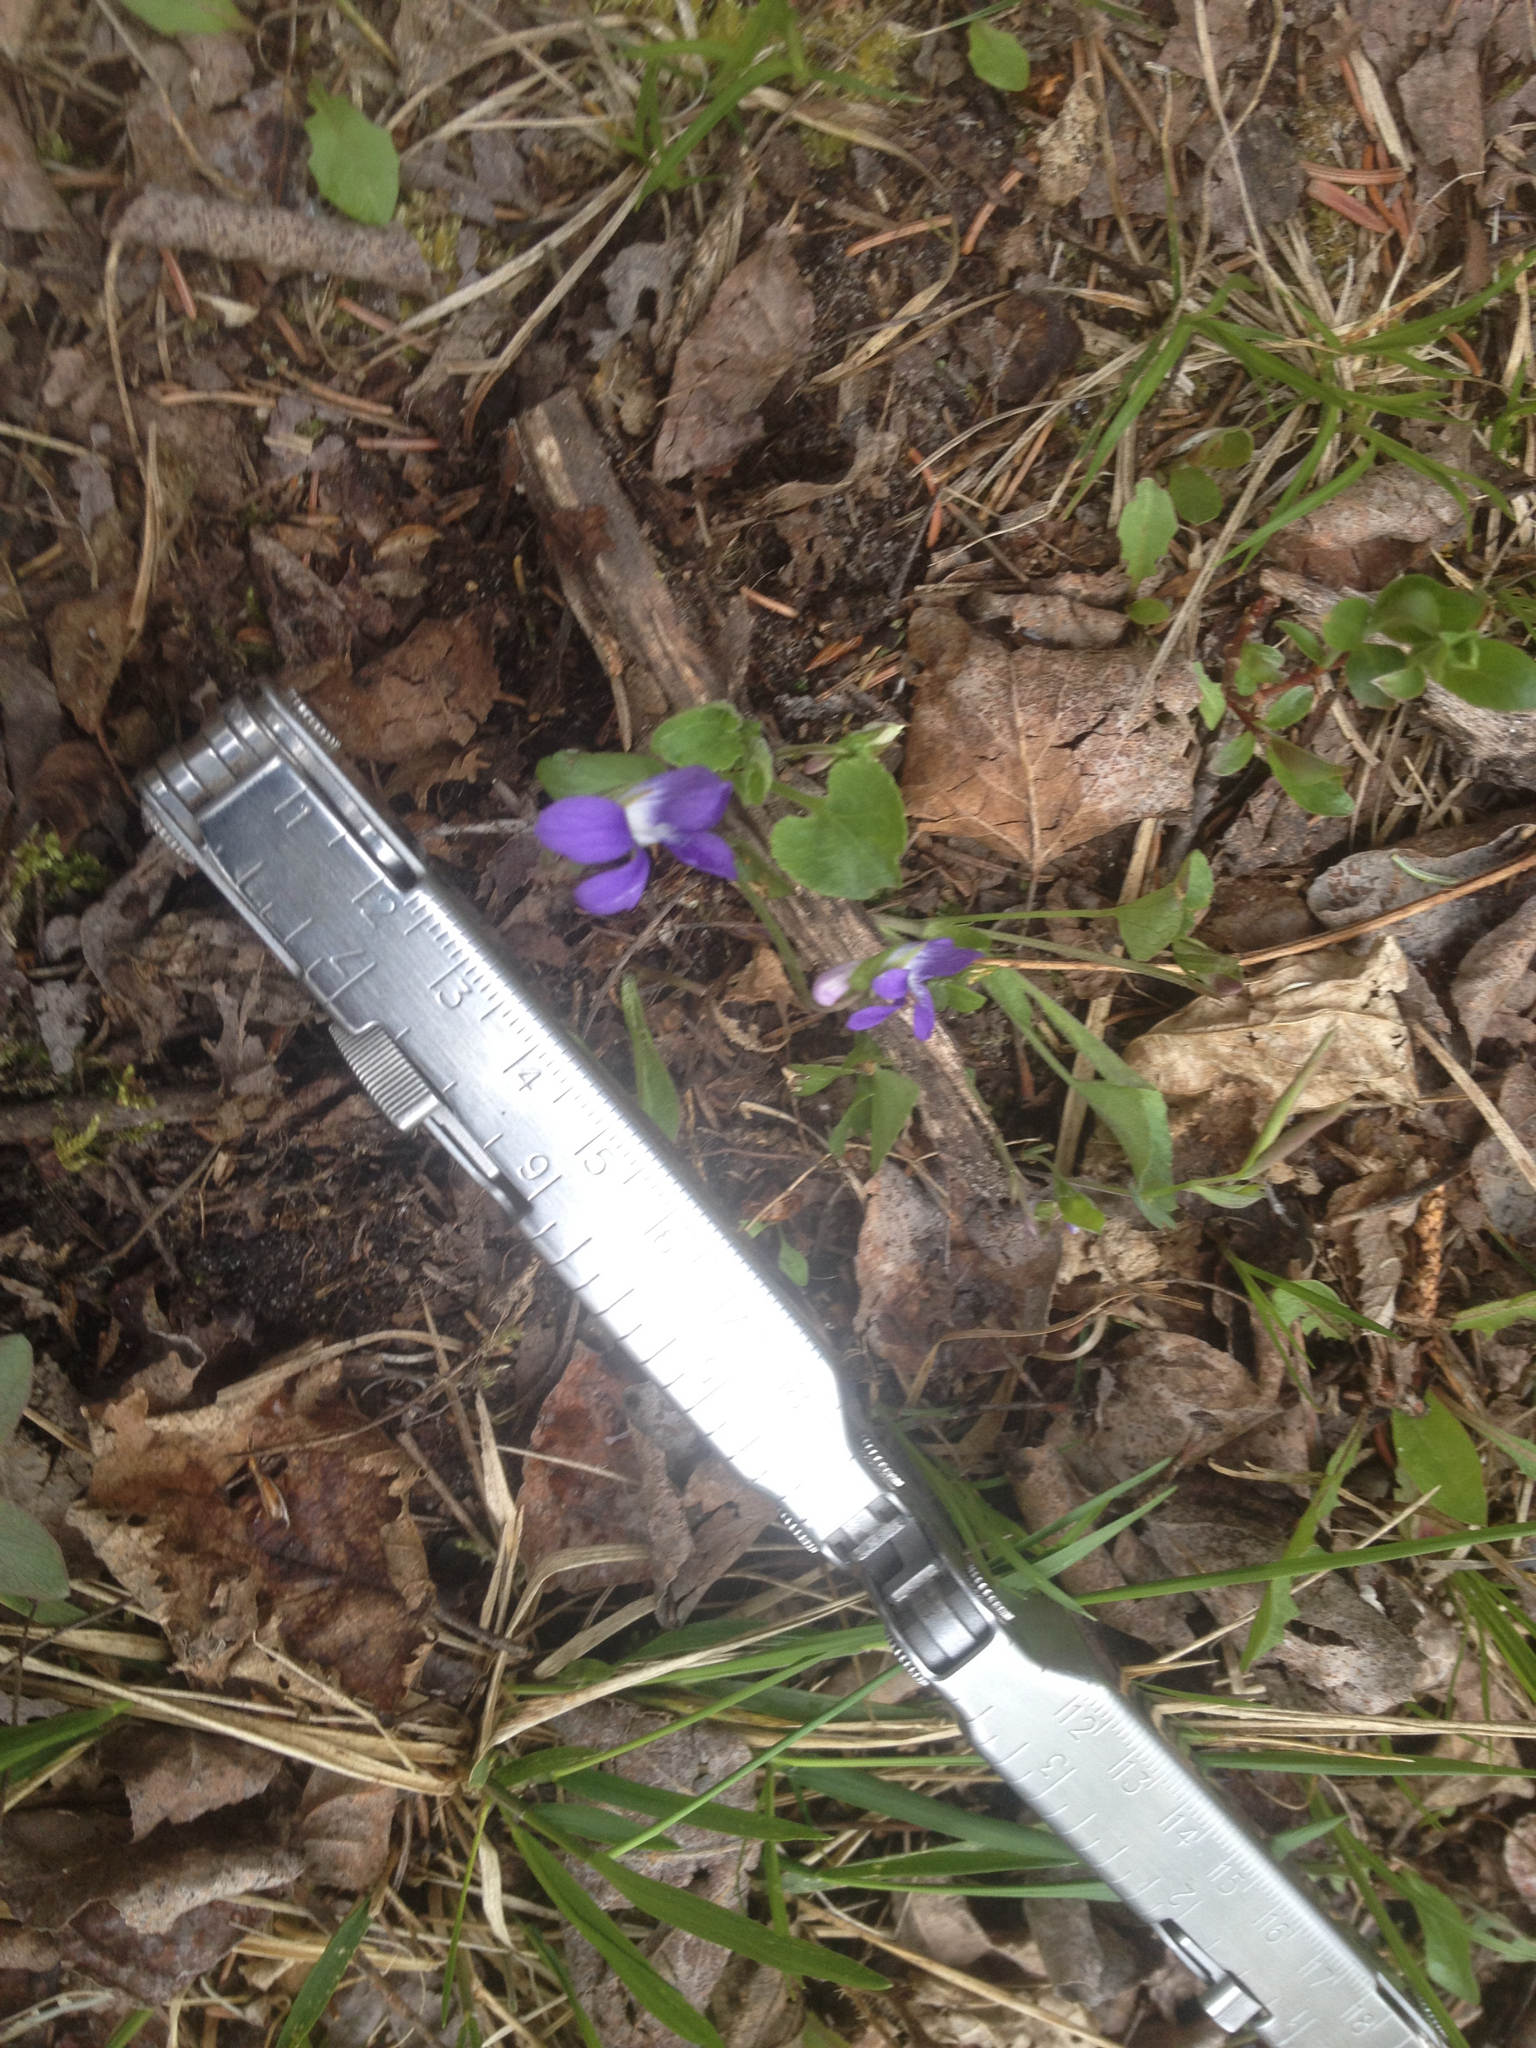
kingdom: Plantae
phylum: Tracheophyta
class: Magnoliopsida
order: Malpighiales
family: Violaceae
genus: Viola
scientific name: Viola adunca
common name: Sand violet
